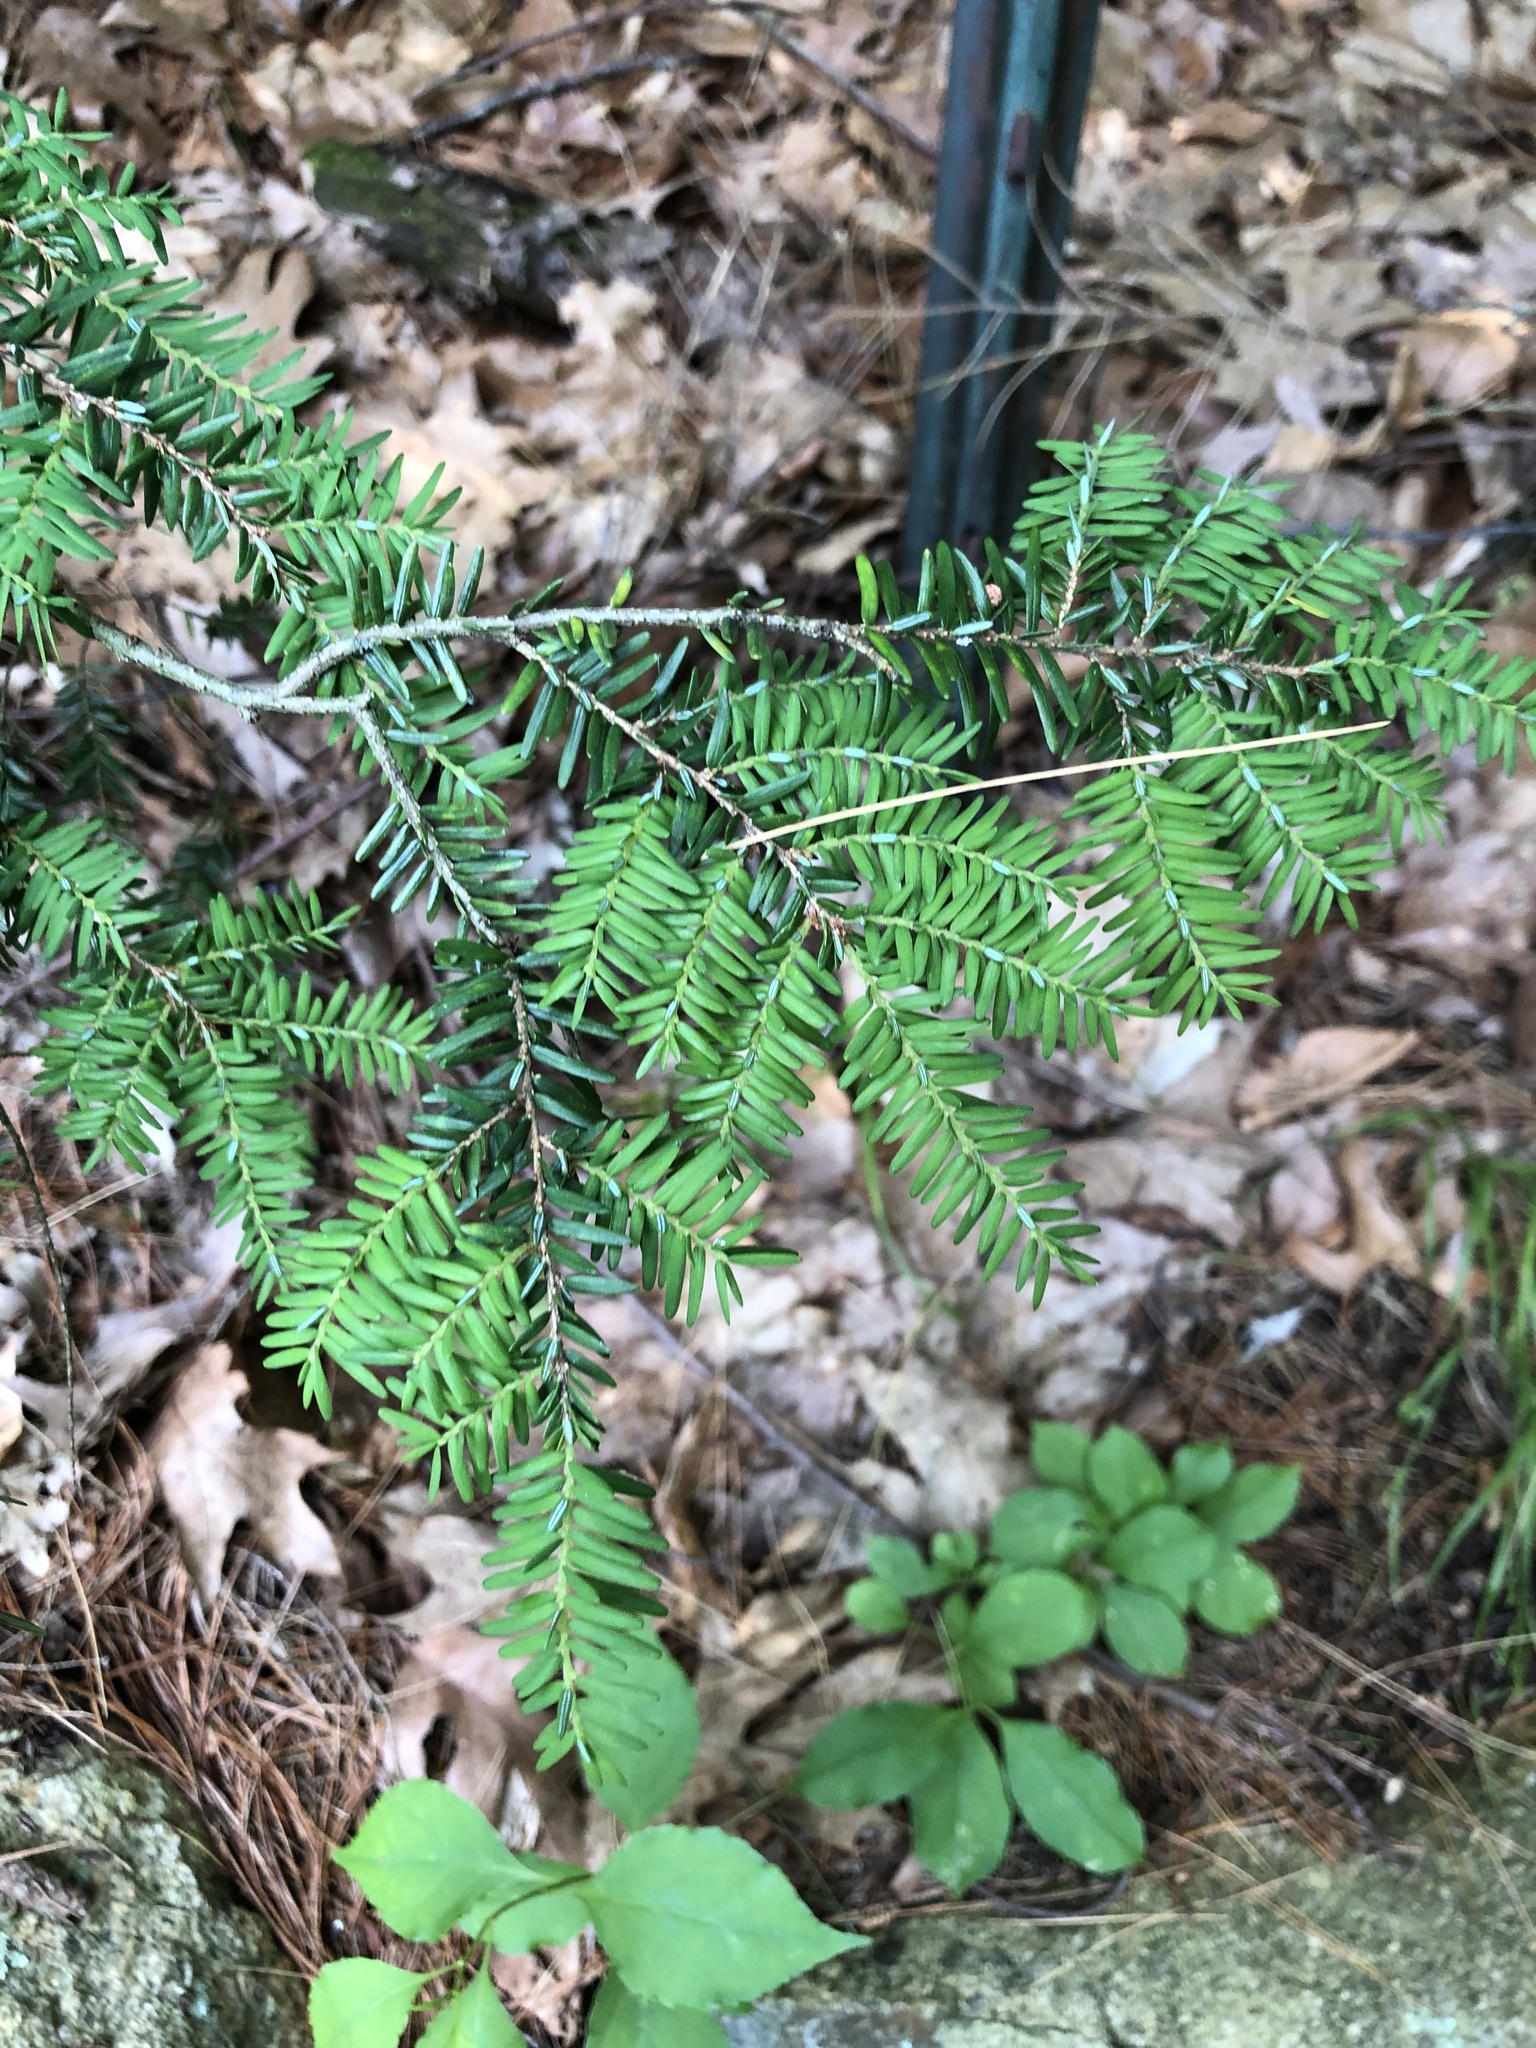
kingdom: Plantae
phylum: Tracheophyta
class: Pinopsida
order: Pinales
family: Pinaceae
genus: Tsuga
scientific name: Tsuga canadensis
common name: Eastern hemlock
